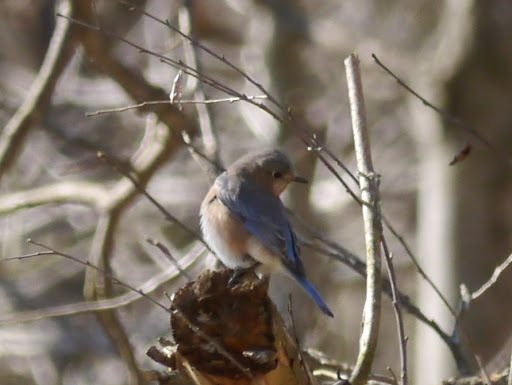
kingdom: Animalia
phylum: Chordata
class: Aves
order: Passeriformes
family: Turdidae
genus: Sialia
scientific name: Sialia sialis
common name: Eastern bluebird
